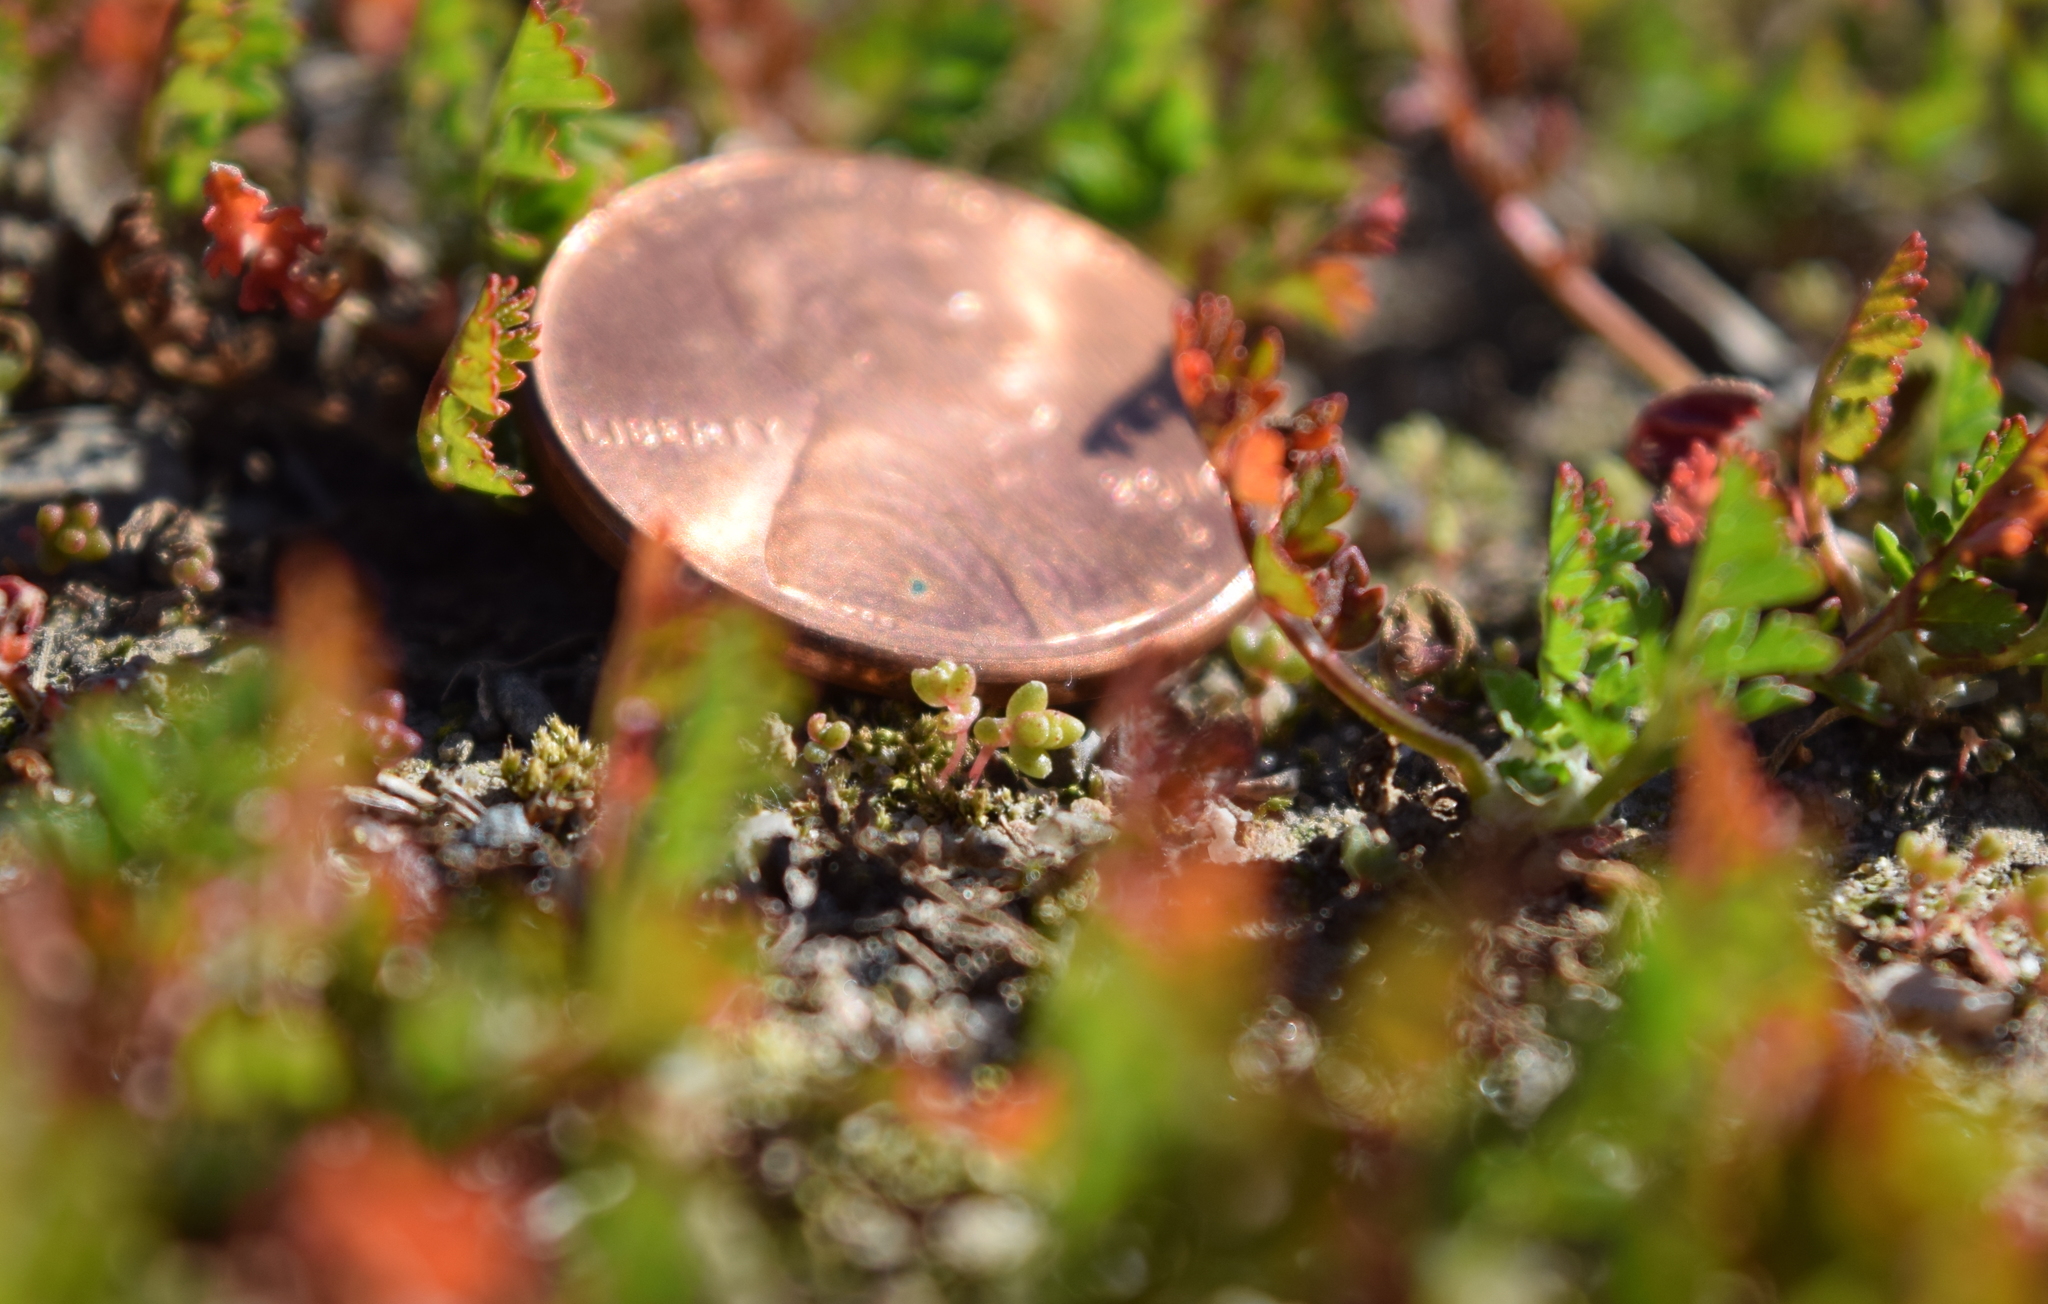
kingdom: Plantae
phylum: Tracheophyta
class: Magnoliopsida
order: Saxifragales
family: Crassulaceae
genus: Crassula
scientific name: Crassula connata
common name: Erect pygmyweed
